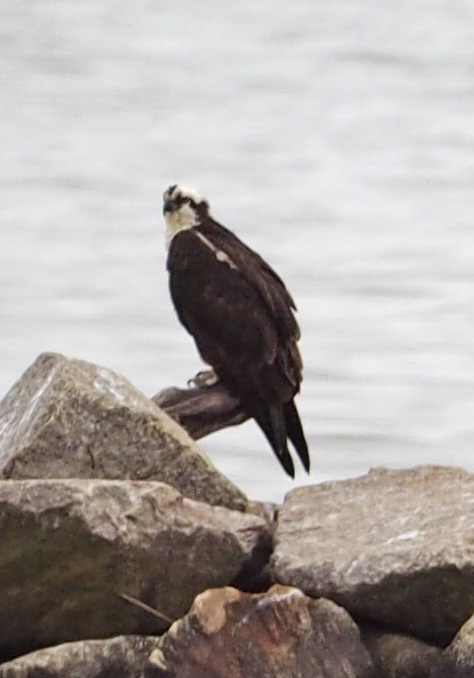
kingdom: Animalia
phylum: Chordata
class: Aves
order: Accipitriformes
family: Pandionidae
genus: Pandion
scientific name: Pandion haliaetus
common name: Osprey
